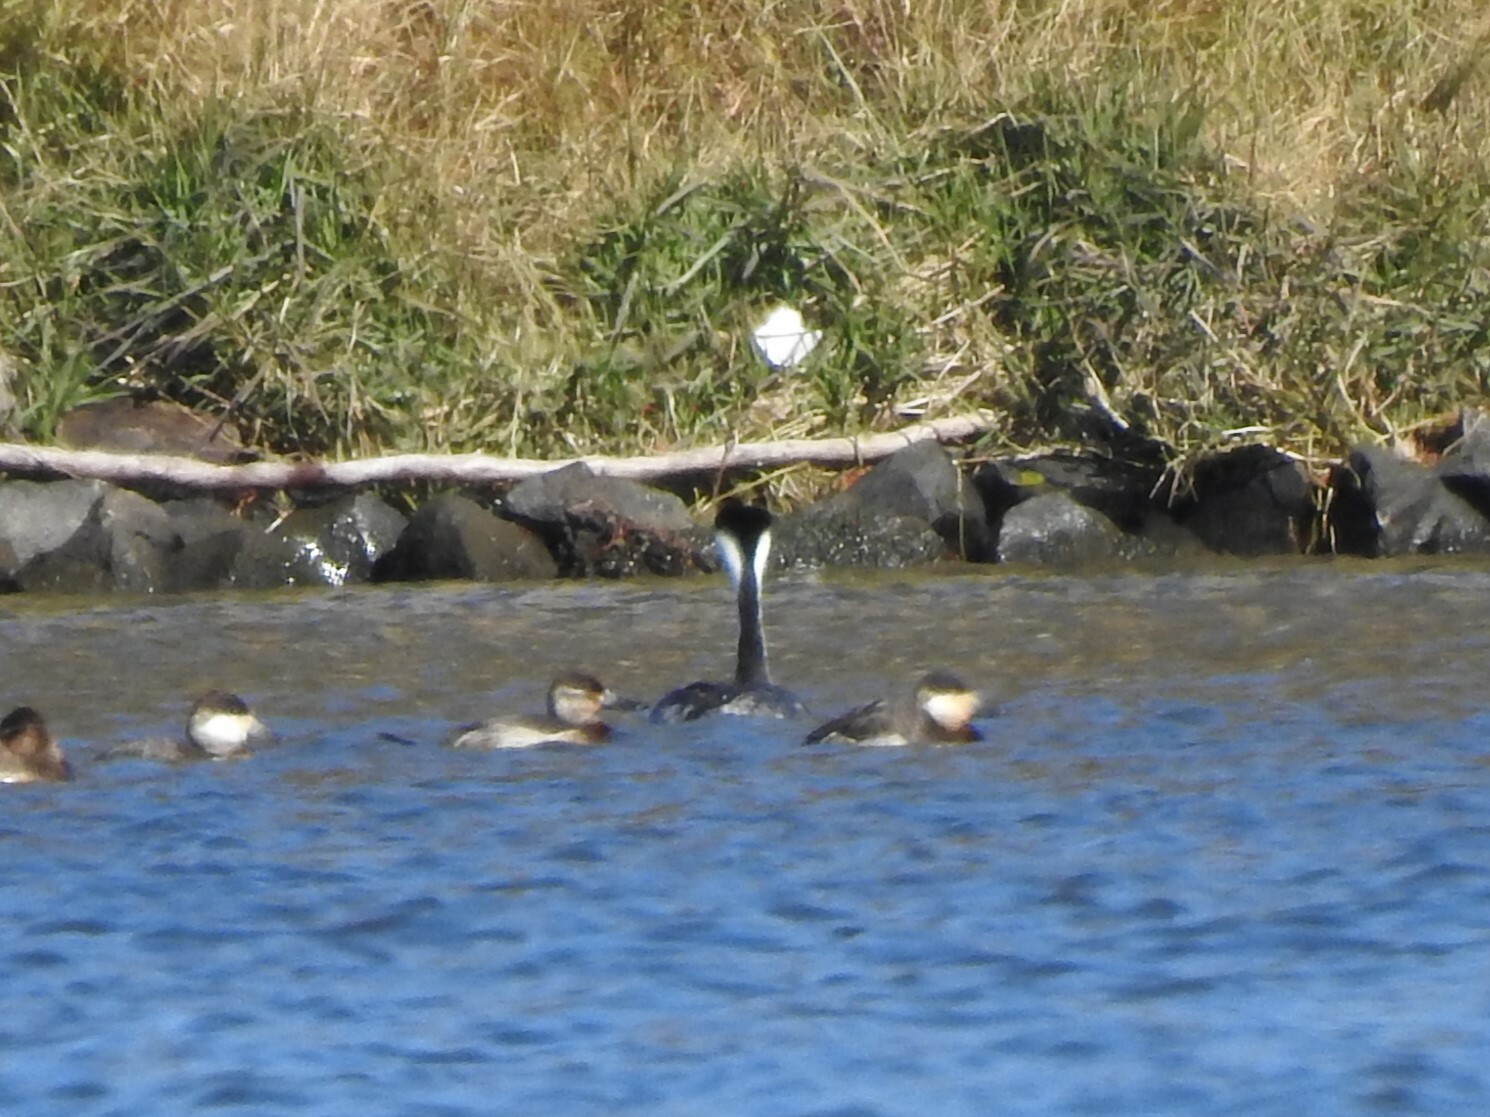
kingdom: Animalia
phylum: Chordata
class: Aves
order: Podicipediformes
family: Podicipedidae
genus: Aechmophorus
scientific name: Aechmophorus occidentalis
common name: Western grebe
